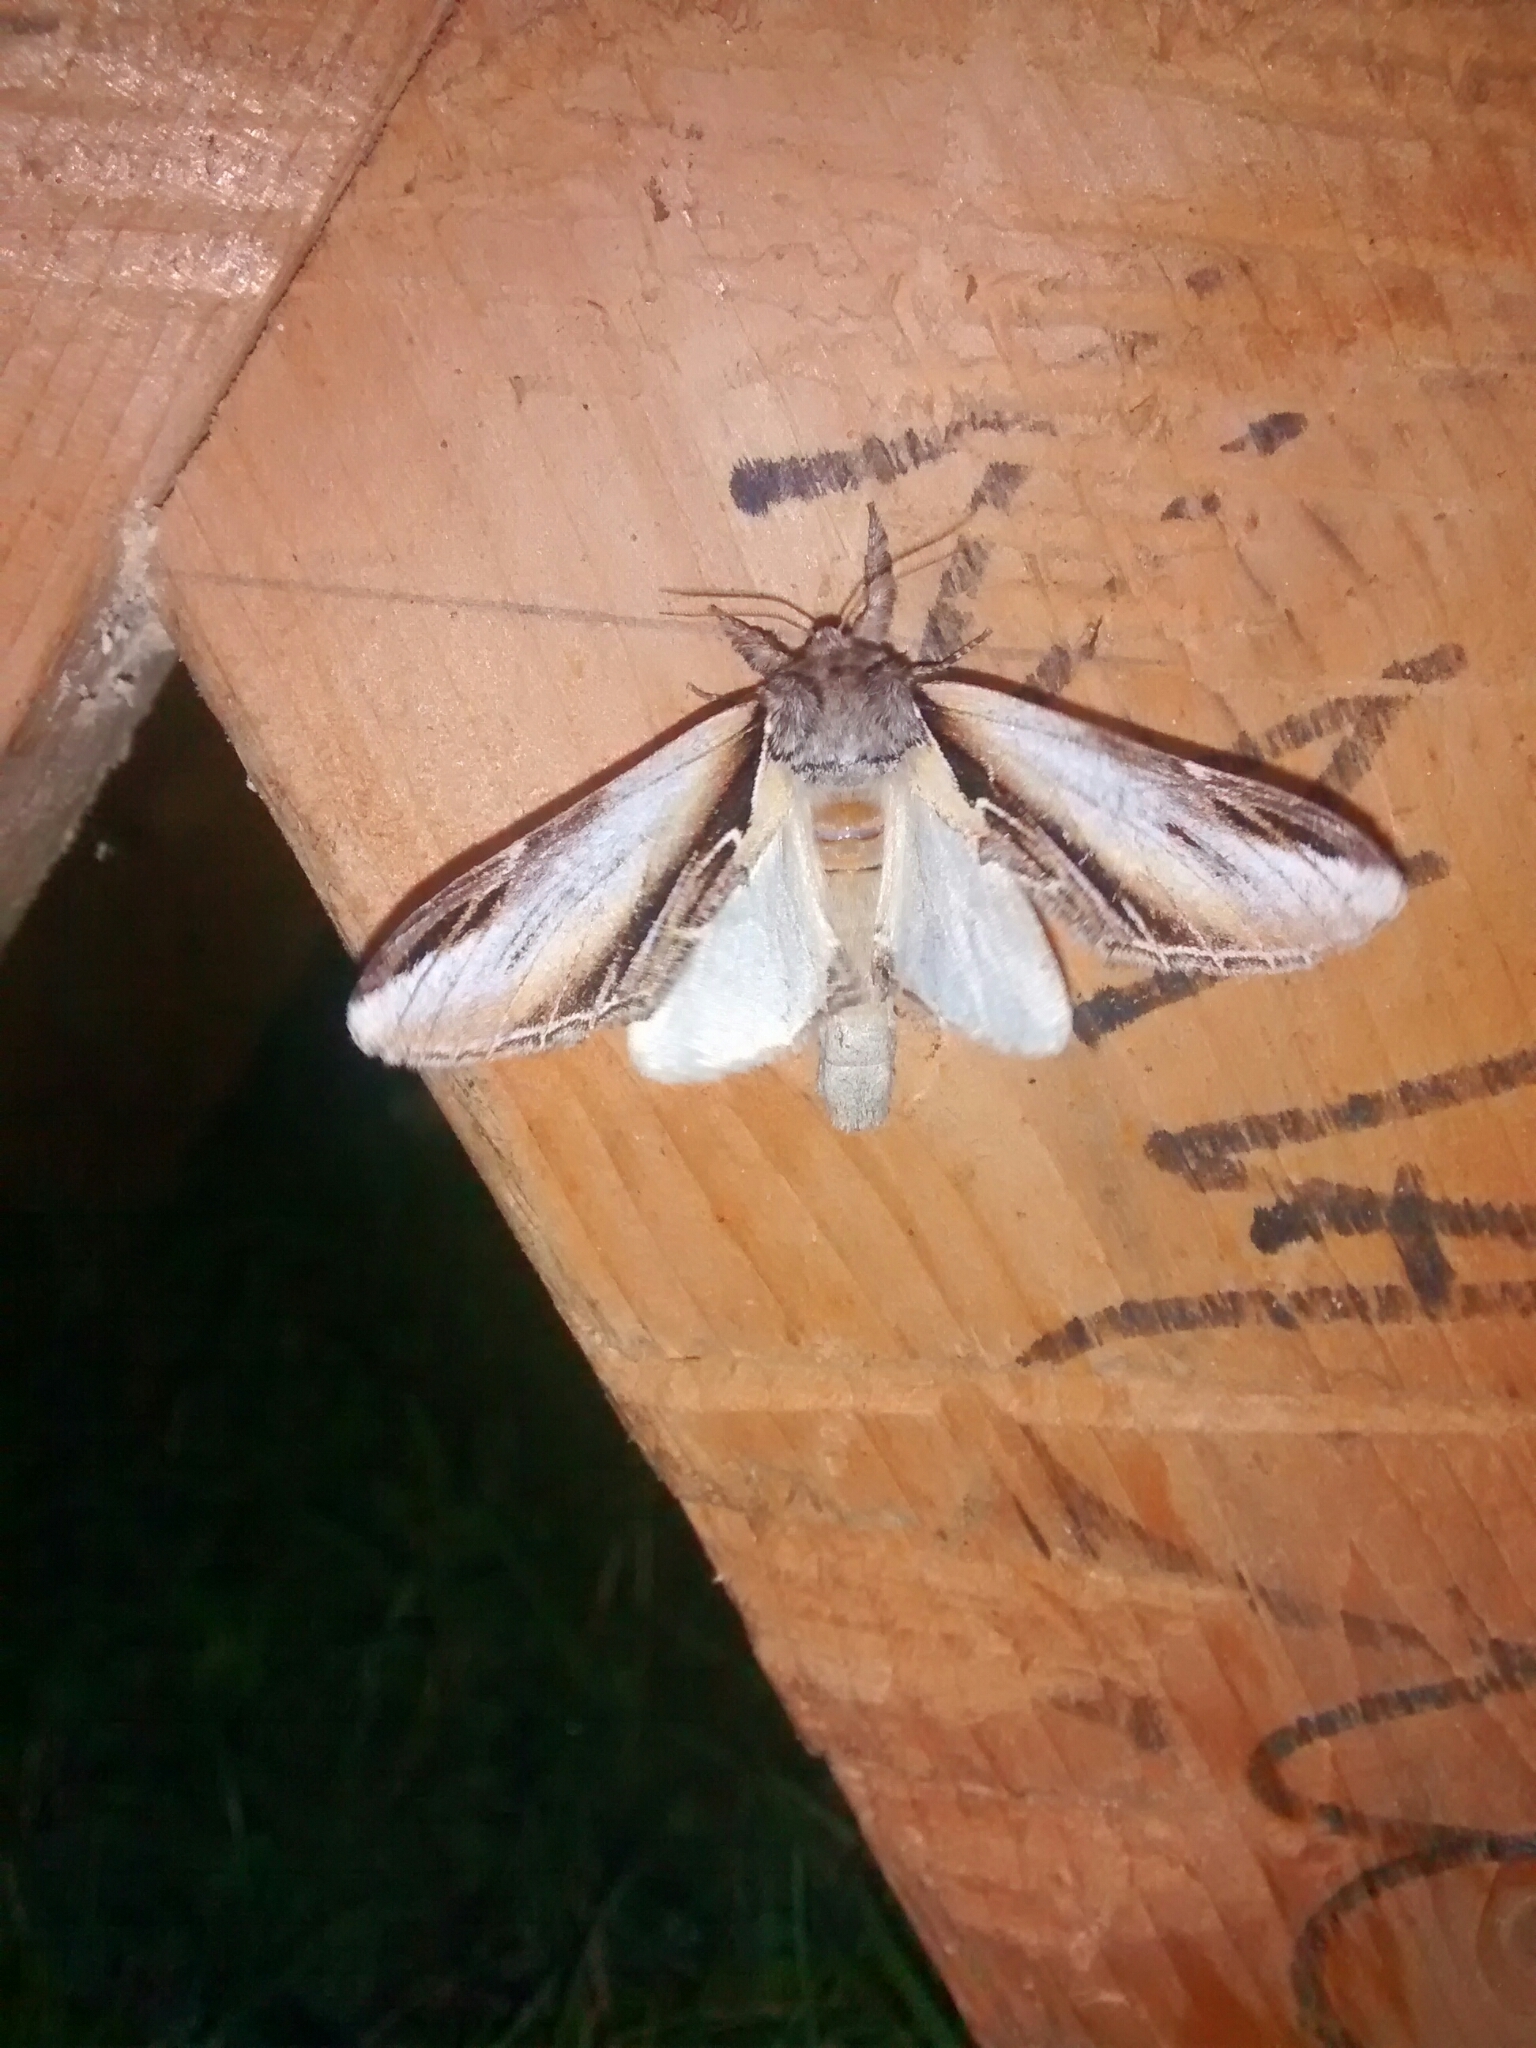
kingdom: Animalia
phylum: Arthropoda
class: Insecta
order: Lepidoptera
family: Notodontidae
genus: Pheosia
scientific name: Pheosia rimosa
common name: Black-rimmed prominent
